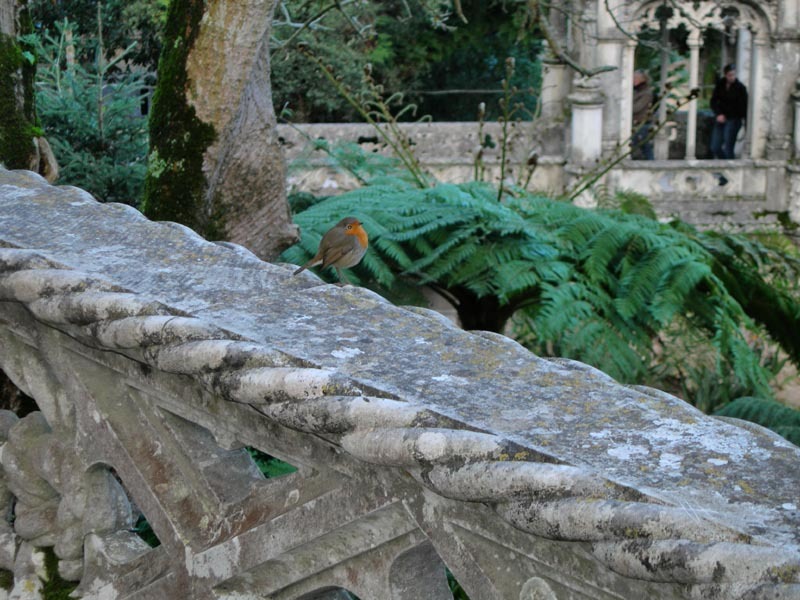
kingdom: Animalia
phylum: Chordata
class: Aves
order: Passeriformes
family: Muscicapidae
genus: Erithacus
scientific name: Erithacus rubecula
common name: European robin
